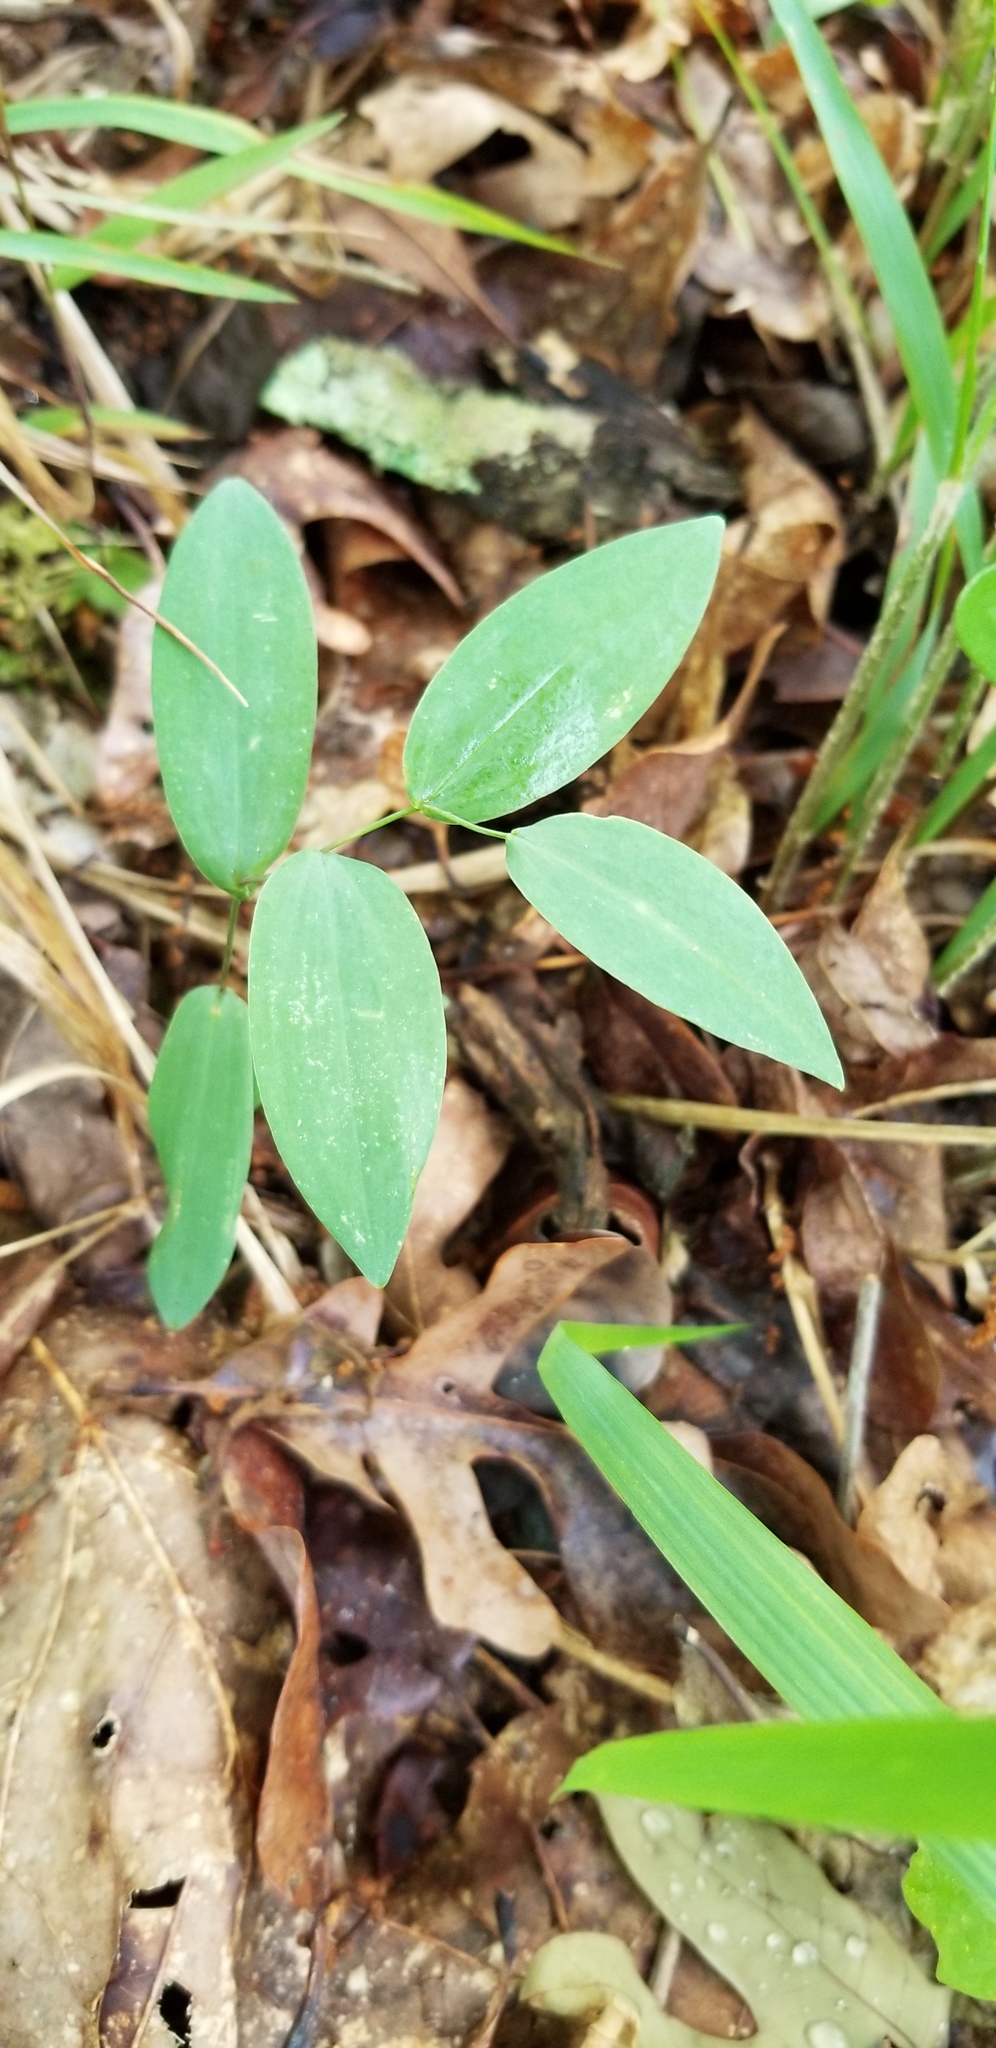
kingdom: Plantae
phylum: Tracheophyta
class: Liliopsida
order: Liliales
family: Colchicaceae
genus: Uvularia
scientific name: Uvularia perfoliata
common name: Perfoliate bellwort
